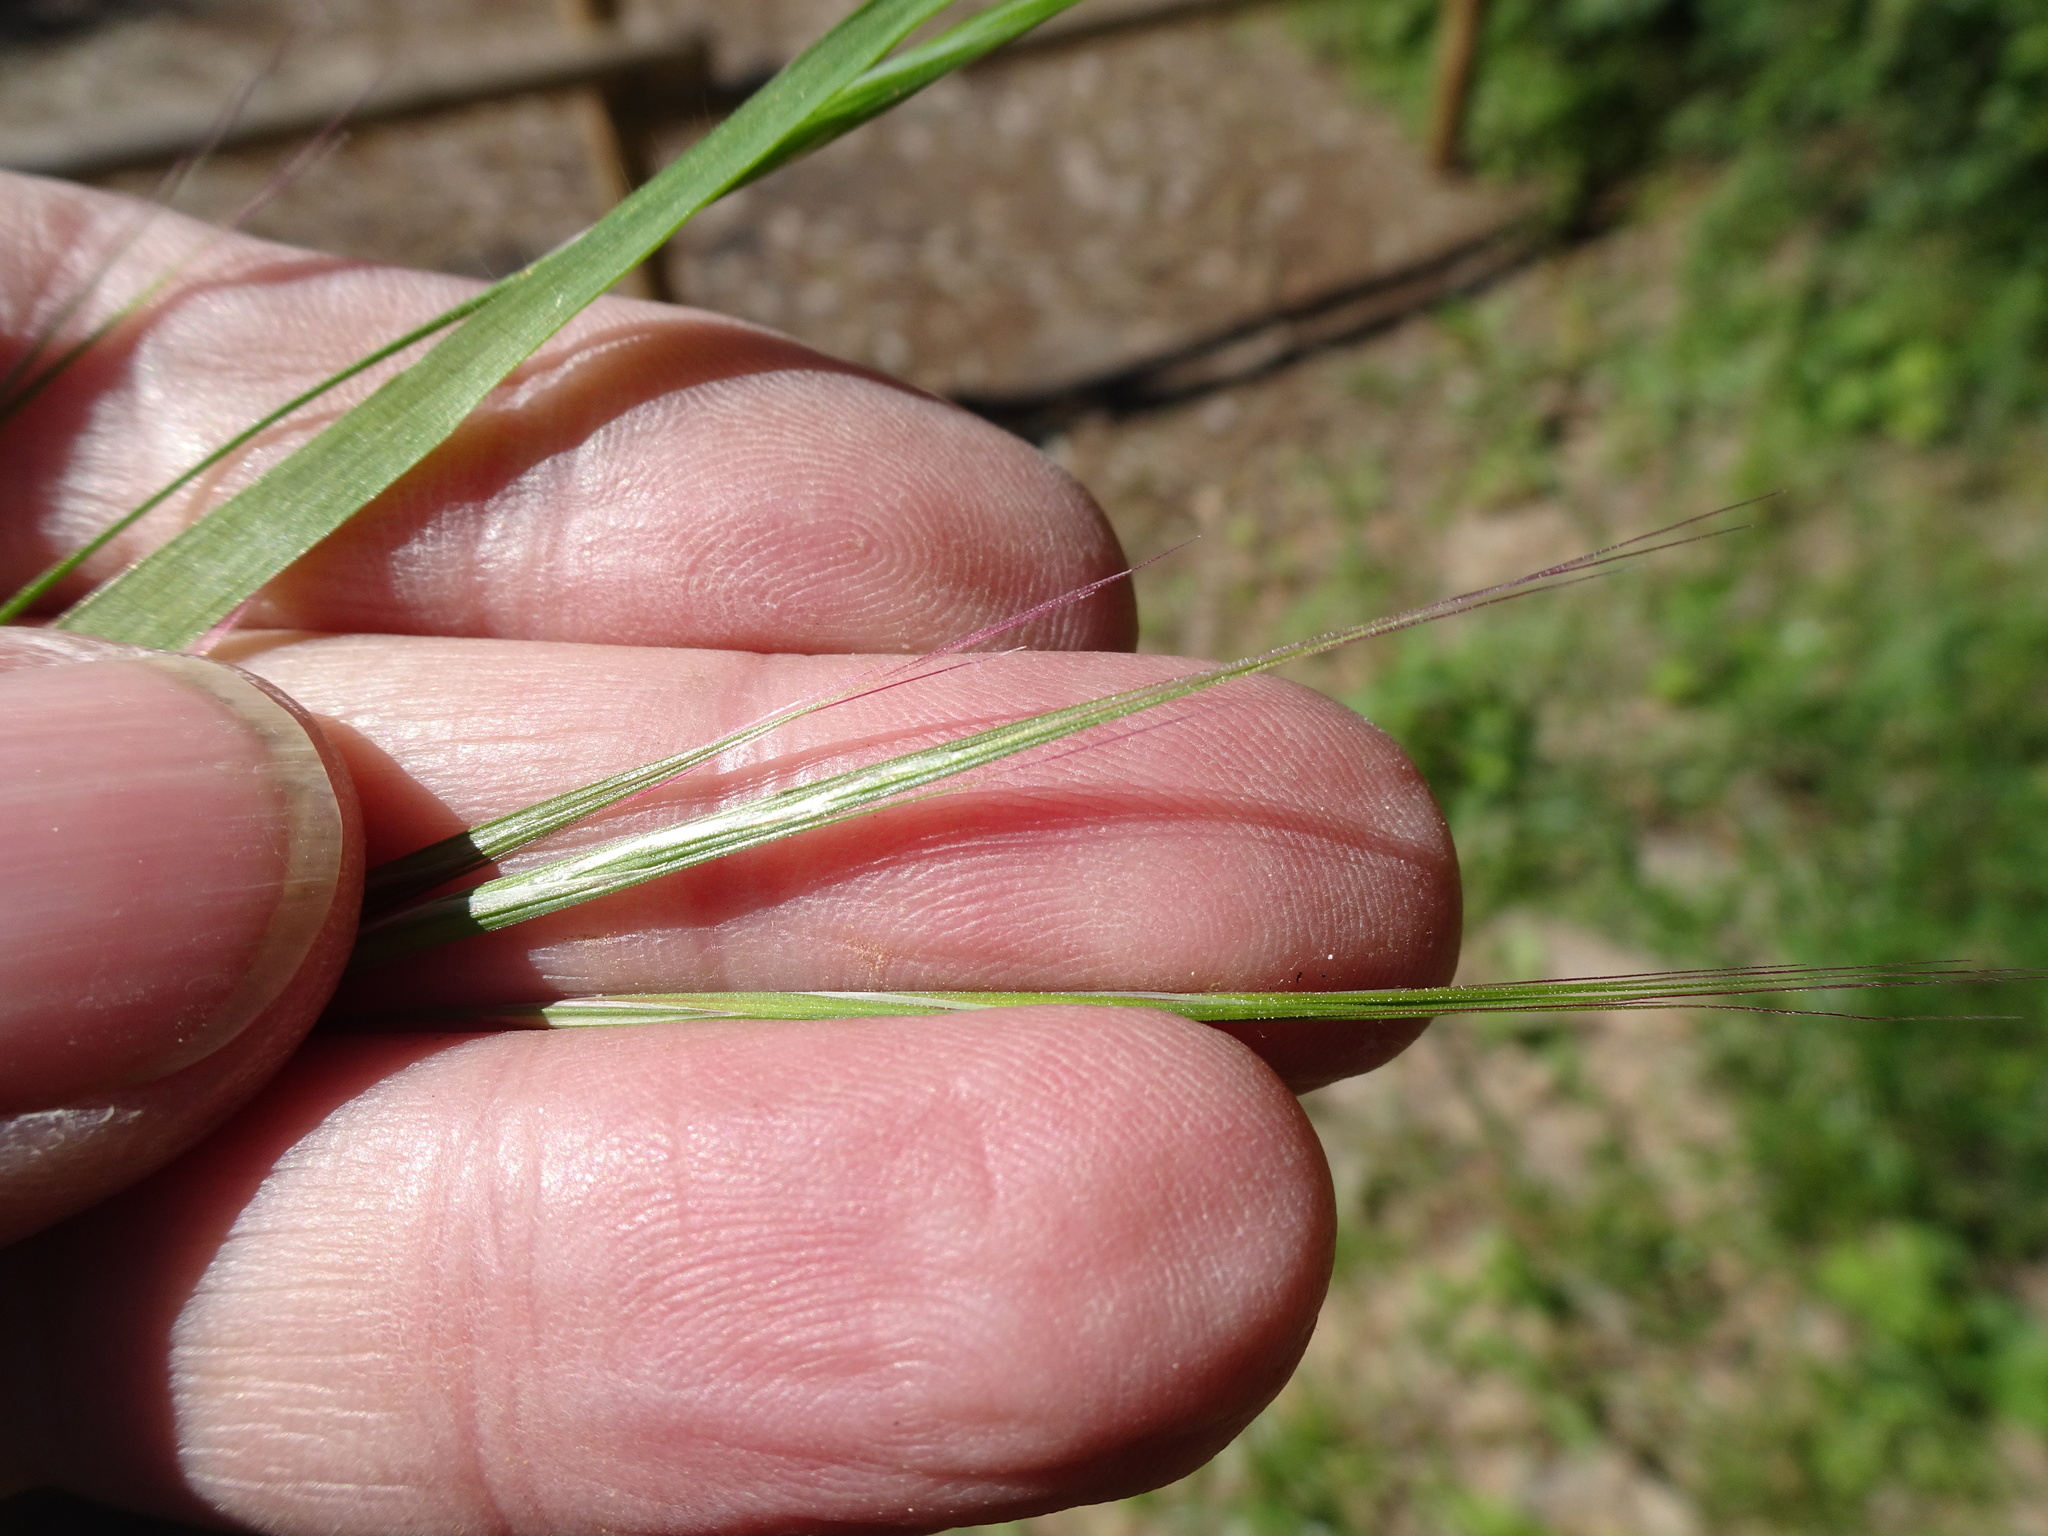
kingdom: Plantae
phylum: Tracheophyta
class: Liliopsida
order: Poales
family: Poaceae
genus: Bromus
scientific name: Bromus sterilis
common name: Poverty brome
